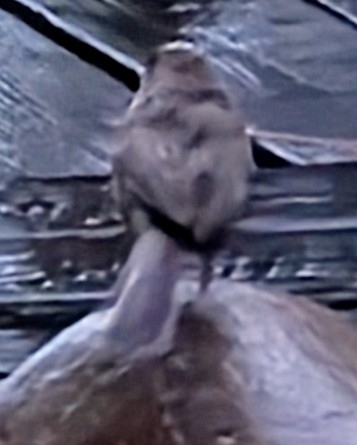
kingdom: Animalia
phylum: Chordata
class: Aves
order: Passeriformes
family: Passerellidae
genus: Melozone
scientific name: Melozone crissalis
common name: California towhee
